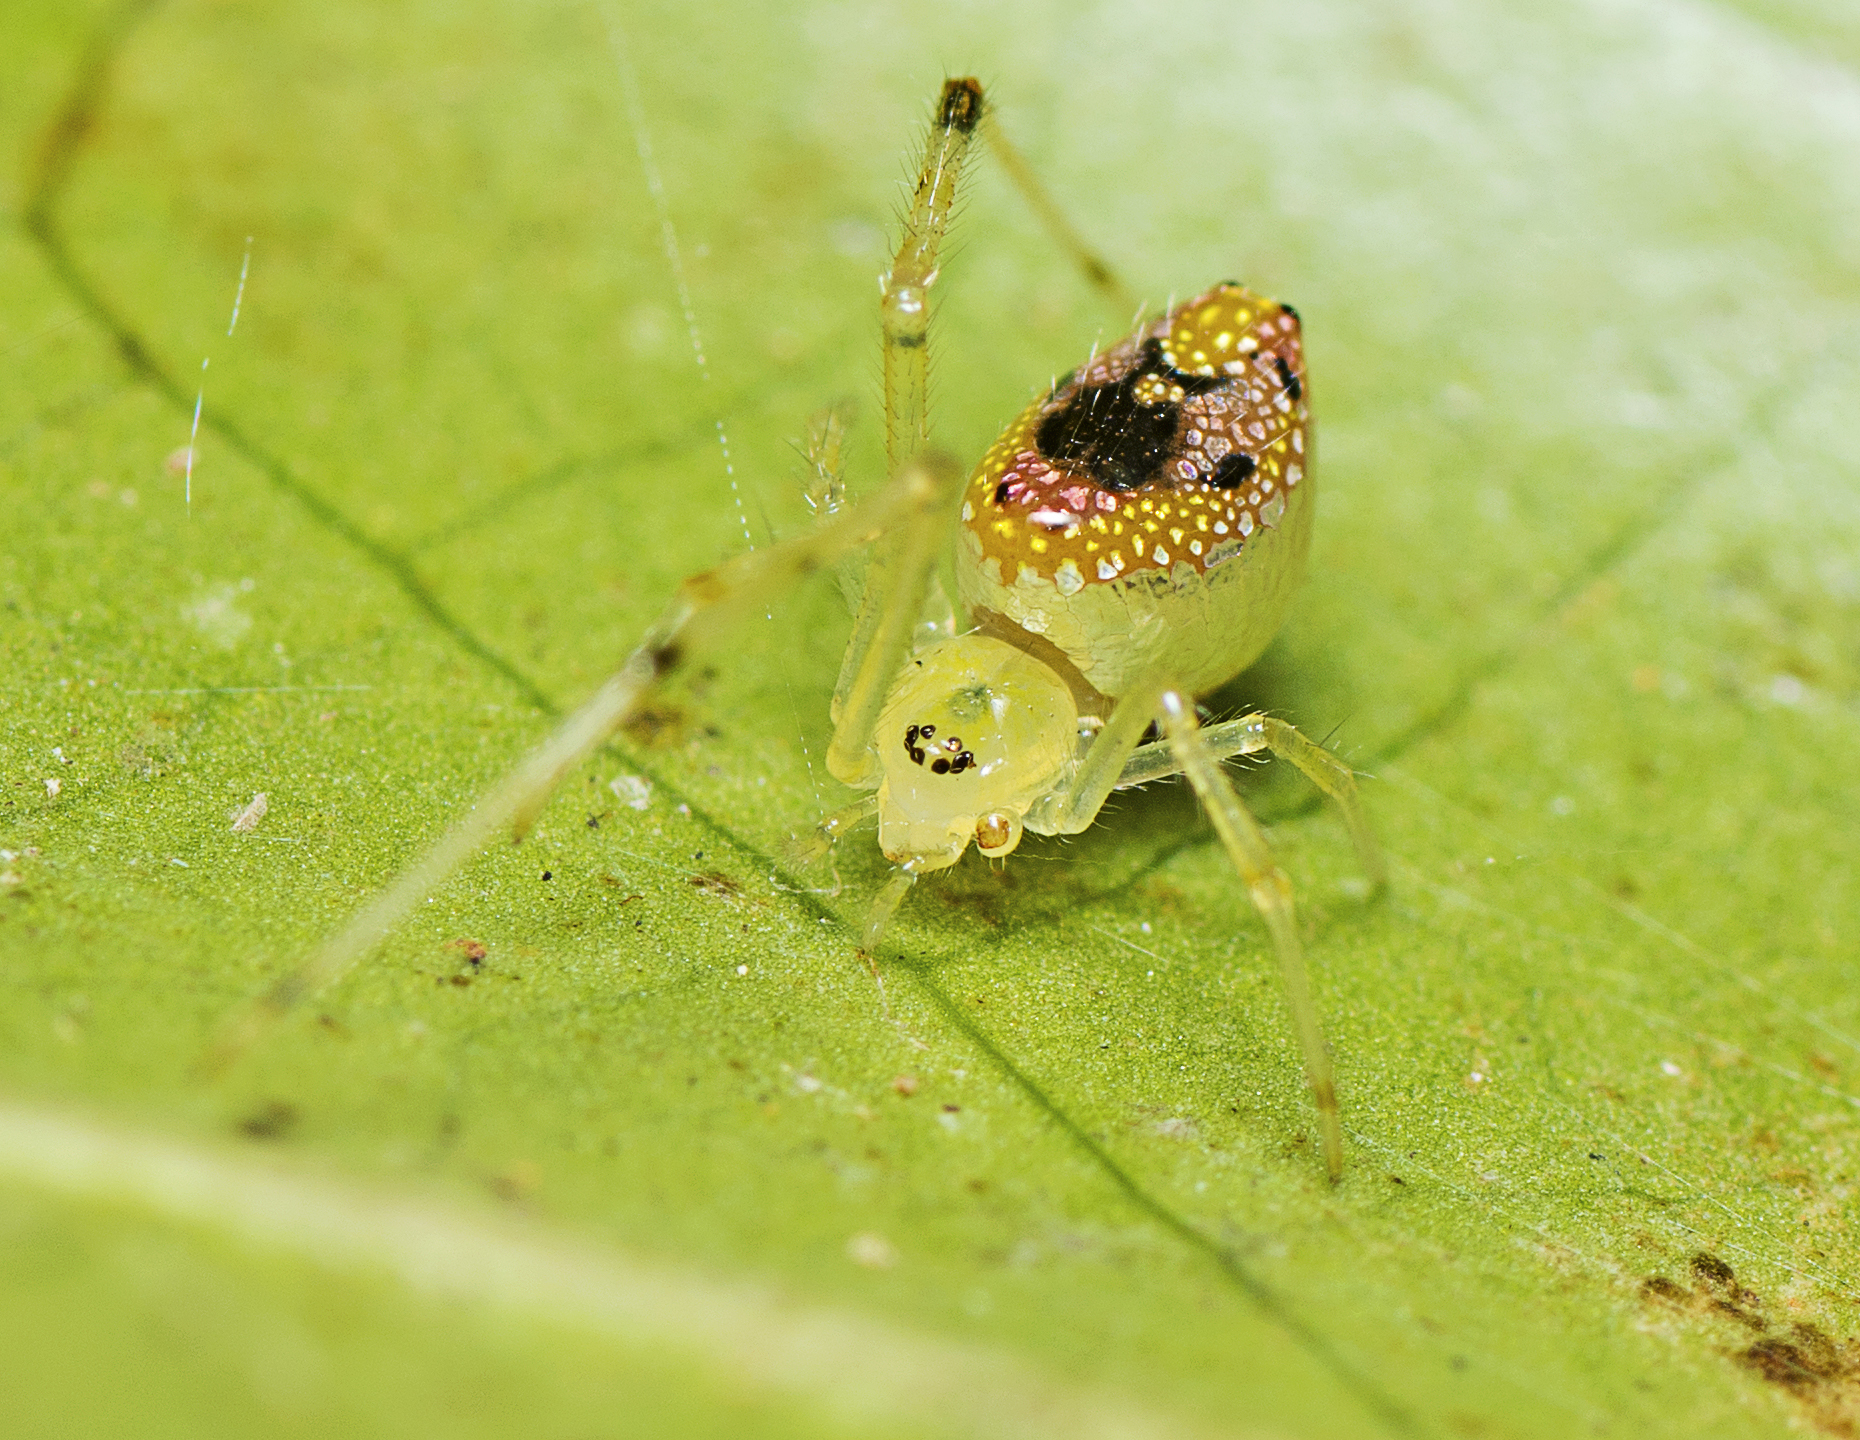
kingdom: Animalia
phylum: Arthropoda
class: Arachnida
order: Araneae
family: Theridiidae
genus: Thwaitesia
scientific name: Thwaitesia nigronodosa
